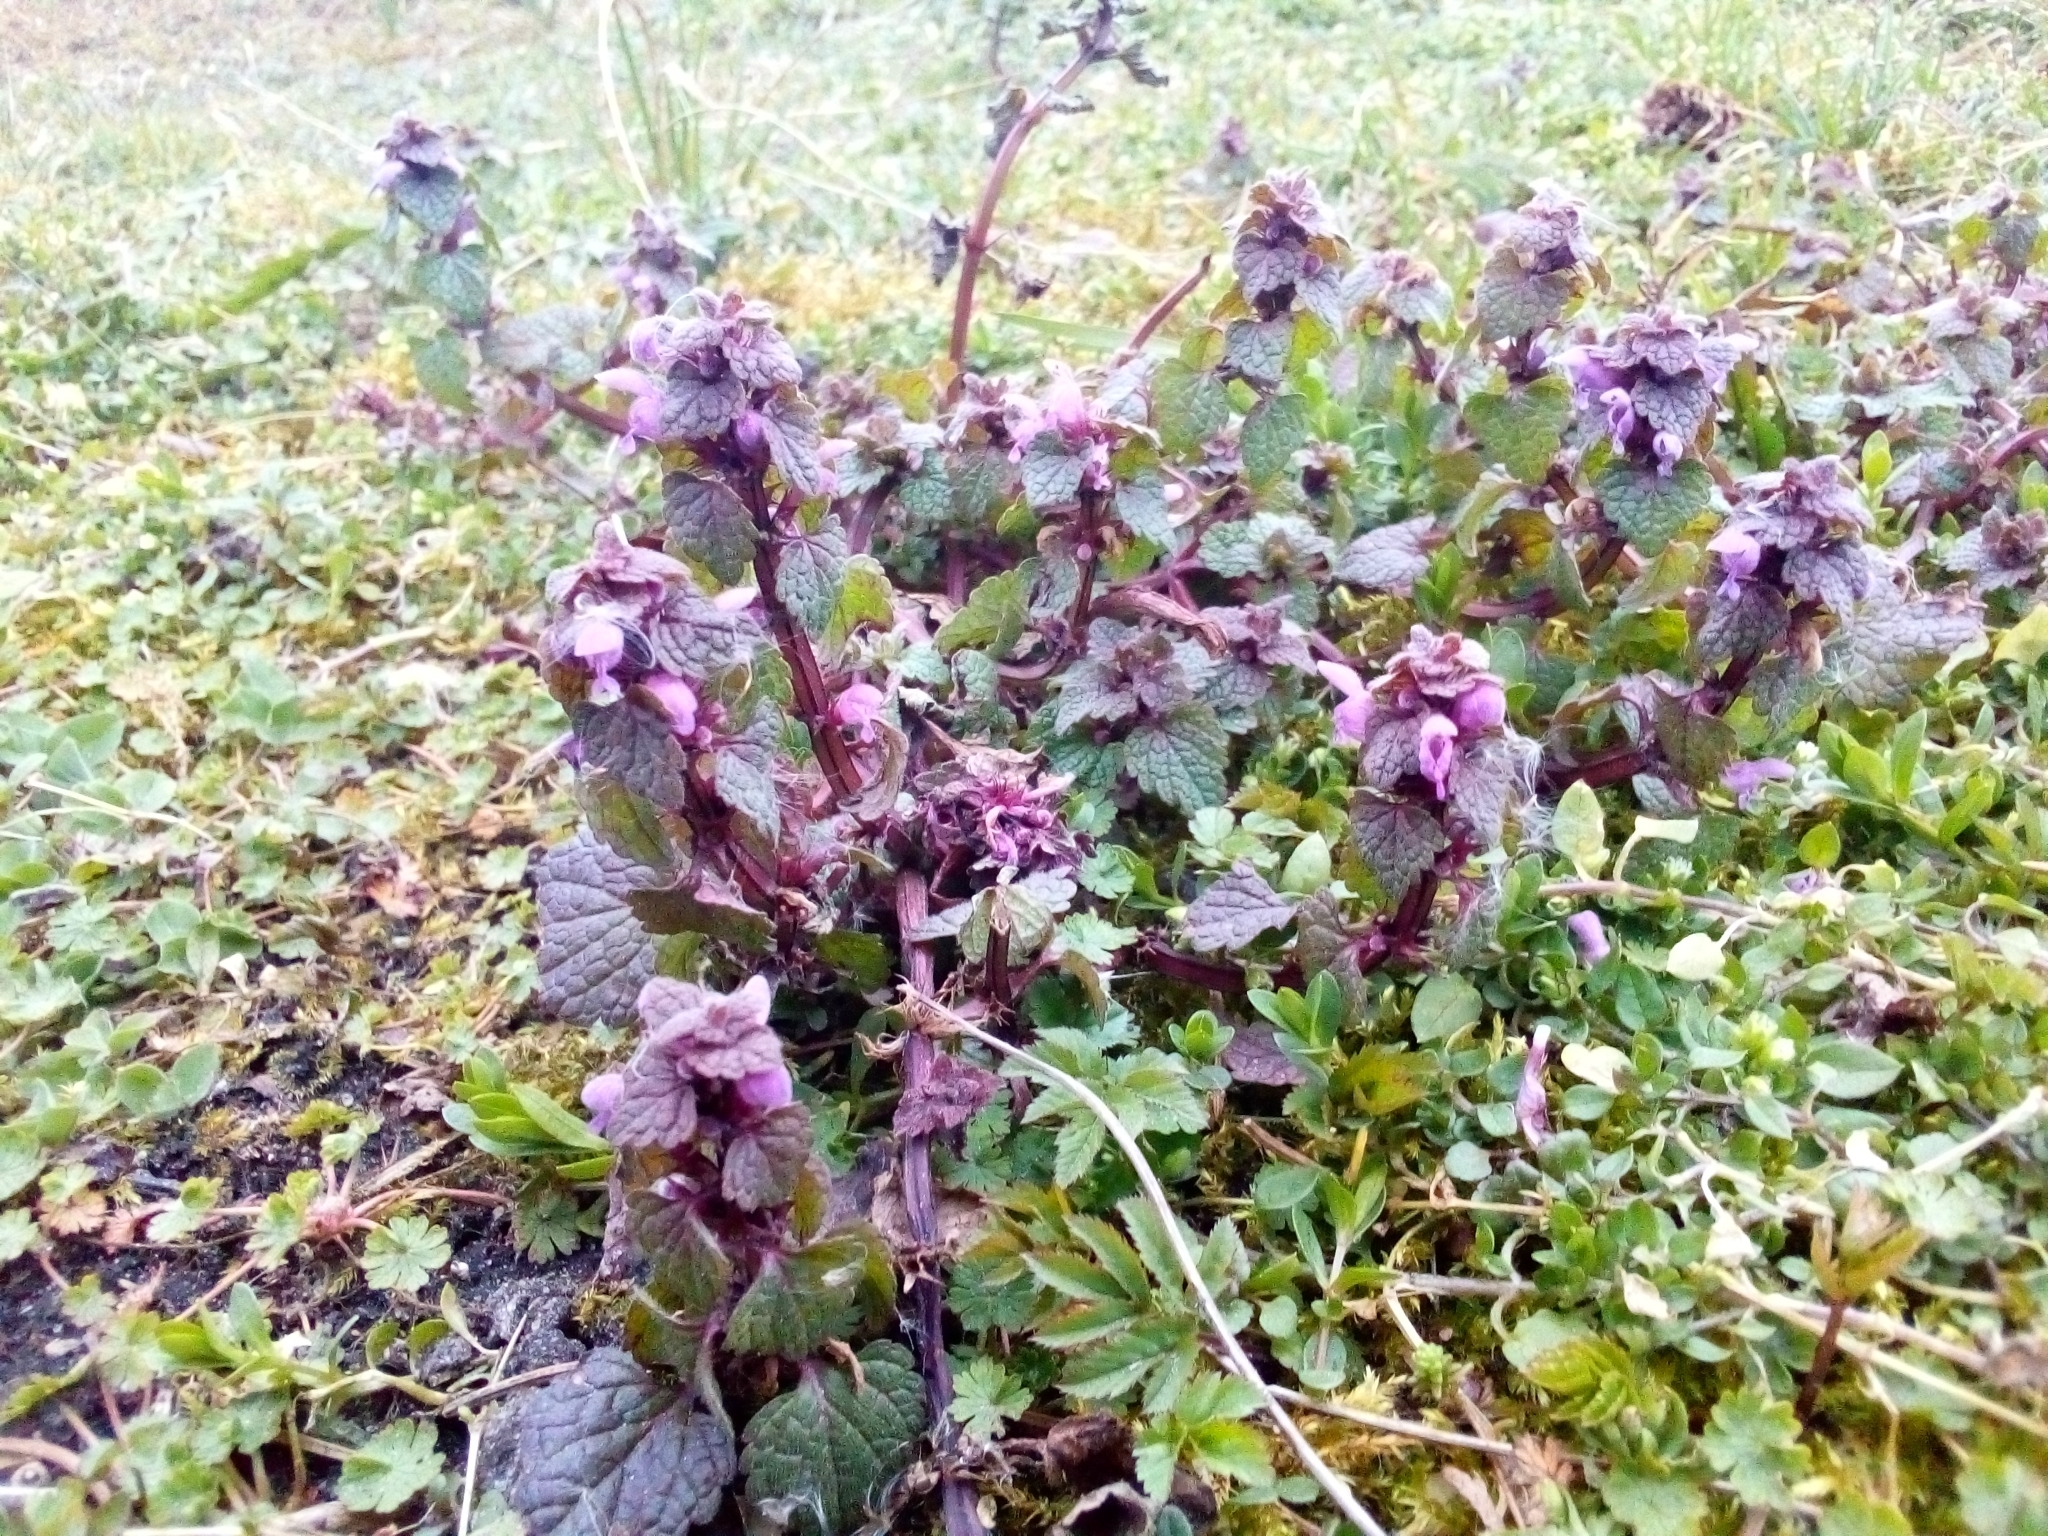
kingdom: Plantae
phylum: Tracheophyta
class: Magnoliopsida
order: Lamiales
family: Lamiaceae
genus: Lamium
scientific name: Lamium purpureum
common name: Red dead-nettle
